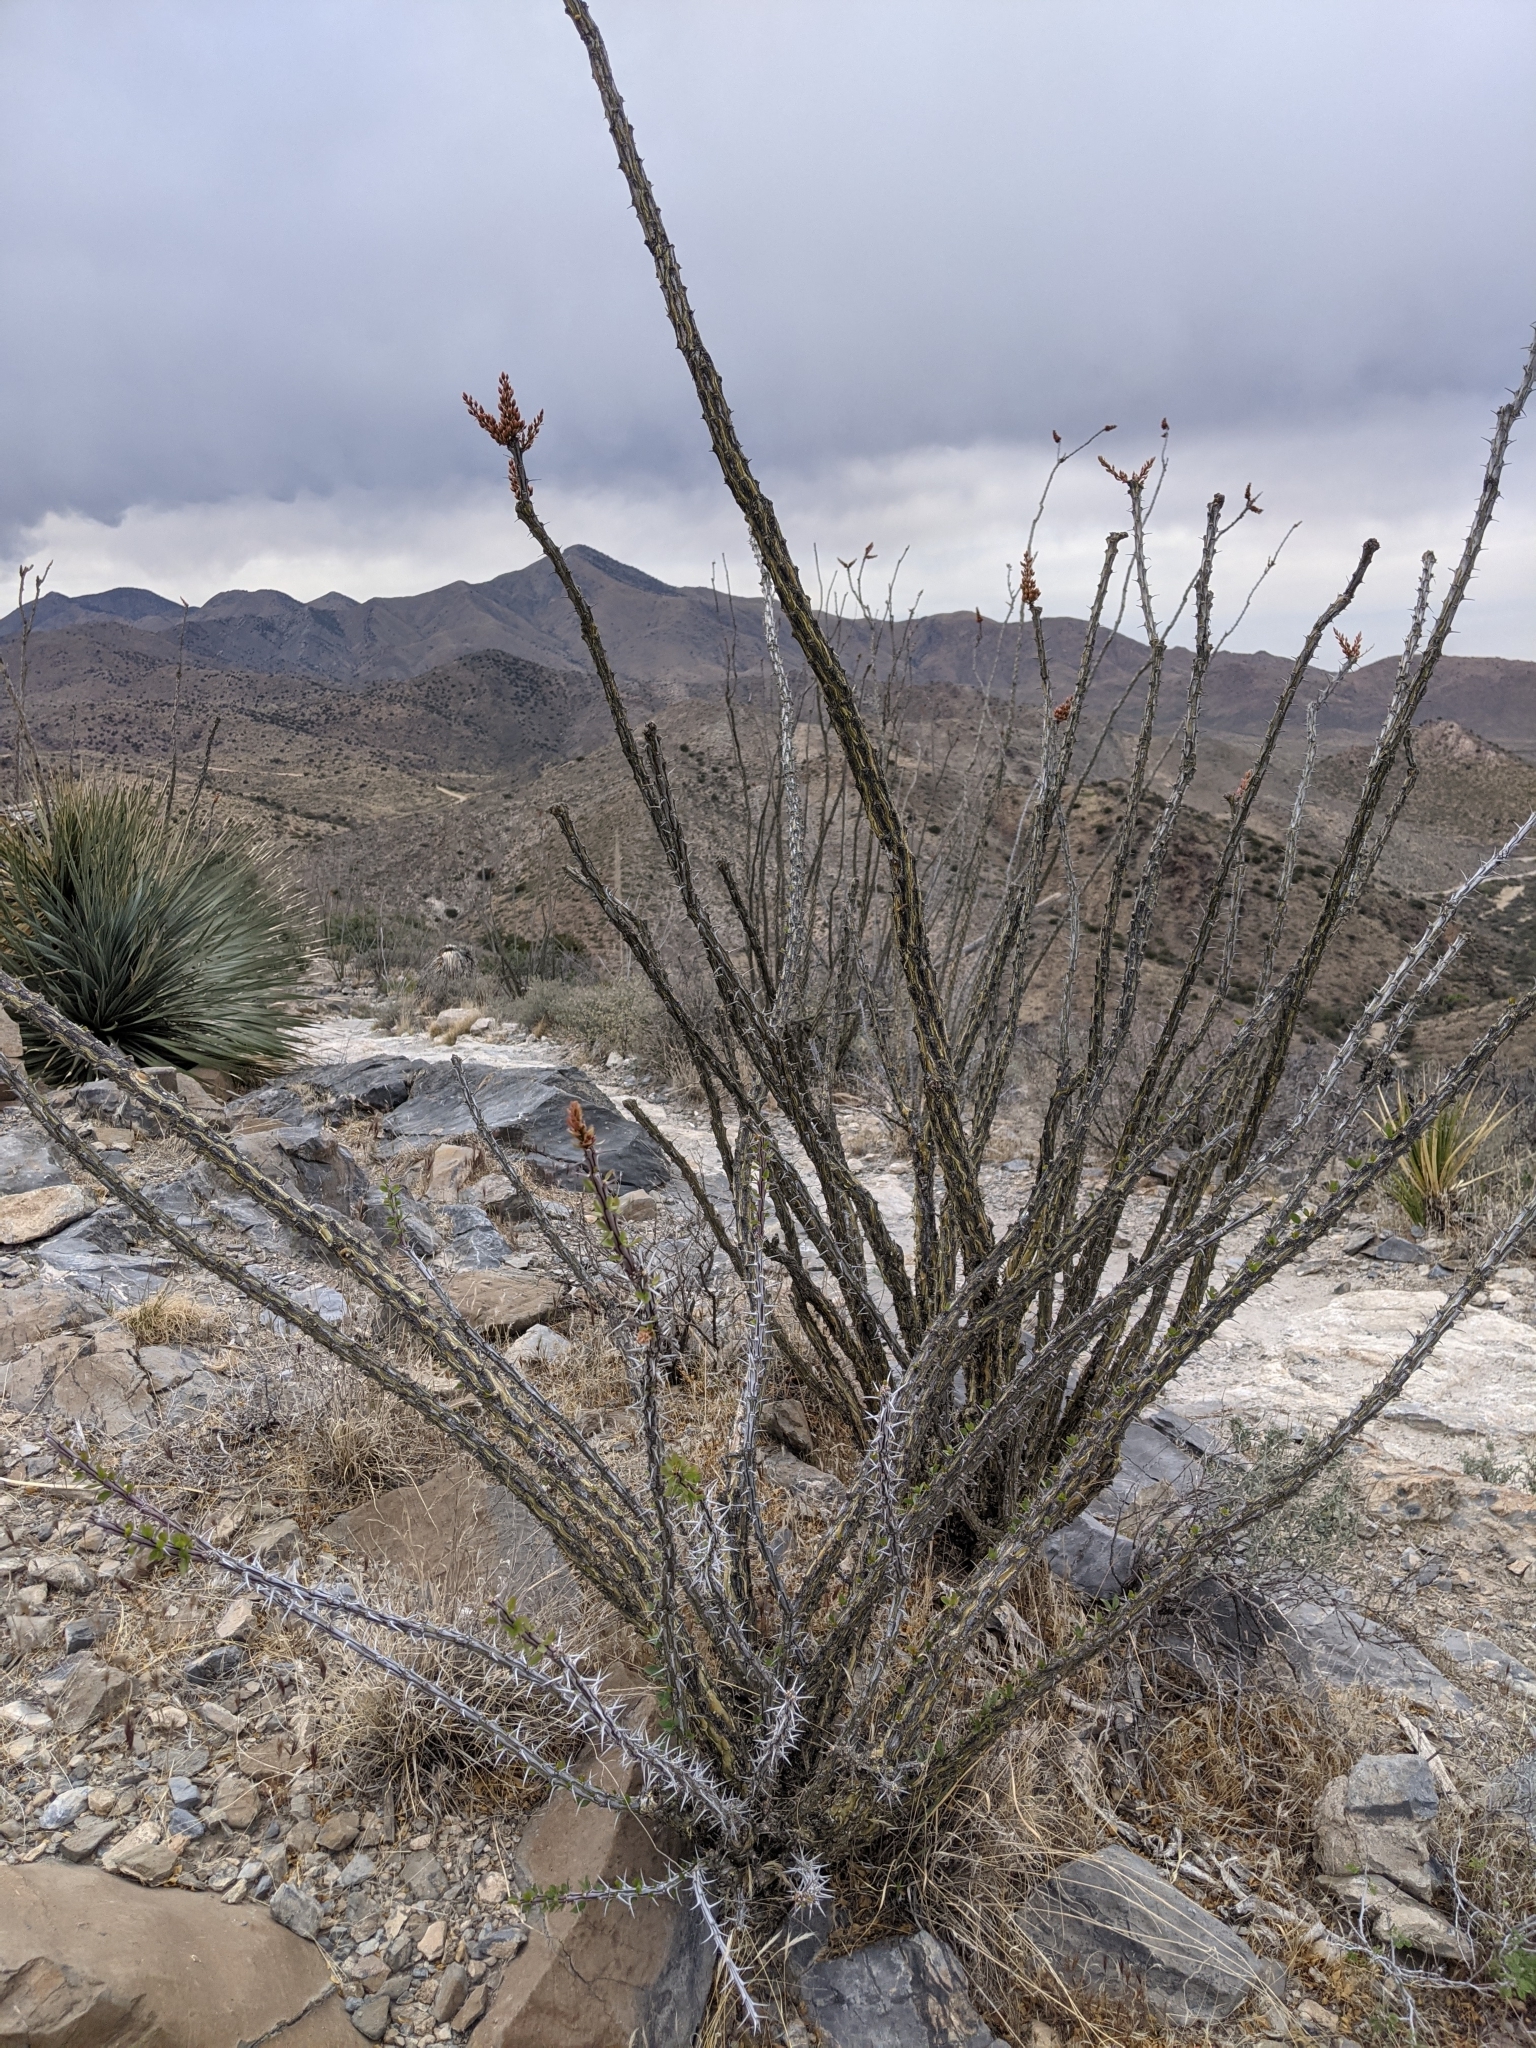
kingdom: Plantae
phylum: Tracheophyta
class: Magnoliopsida
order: Ericales
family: Fouquieriaceae
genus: Fouquieria
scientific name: Fouquieria splendens
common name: Vine-cactus
